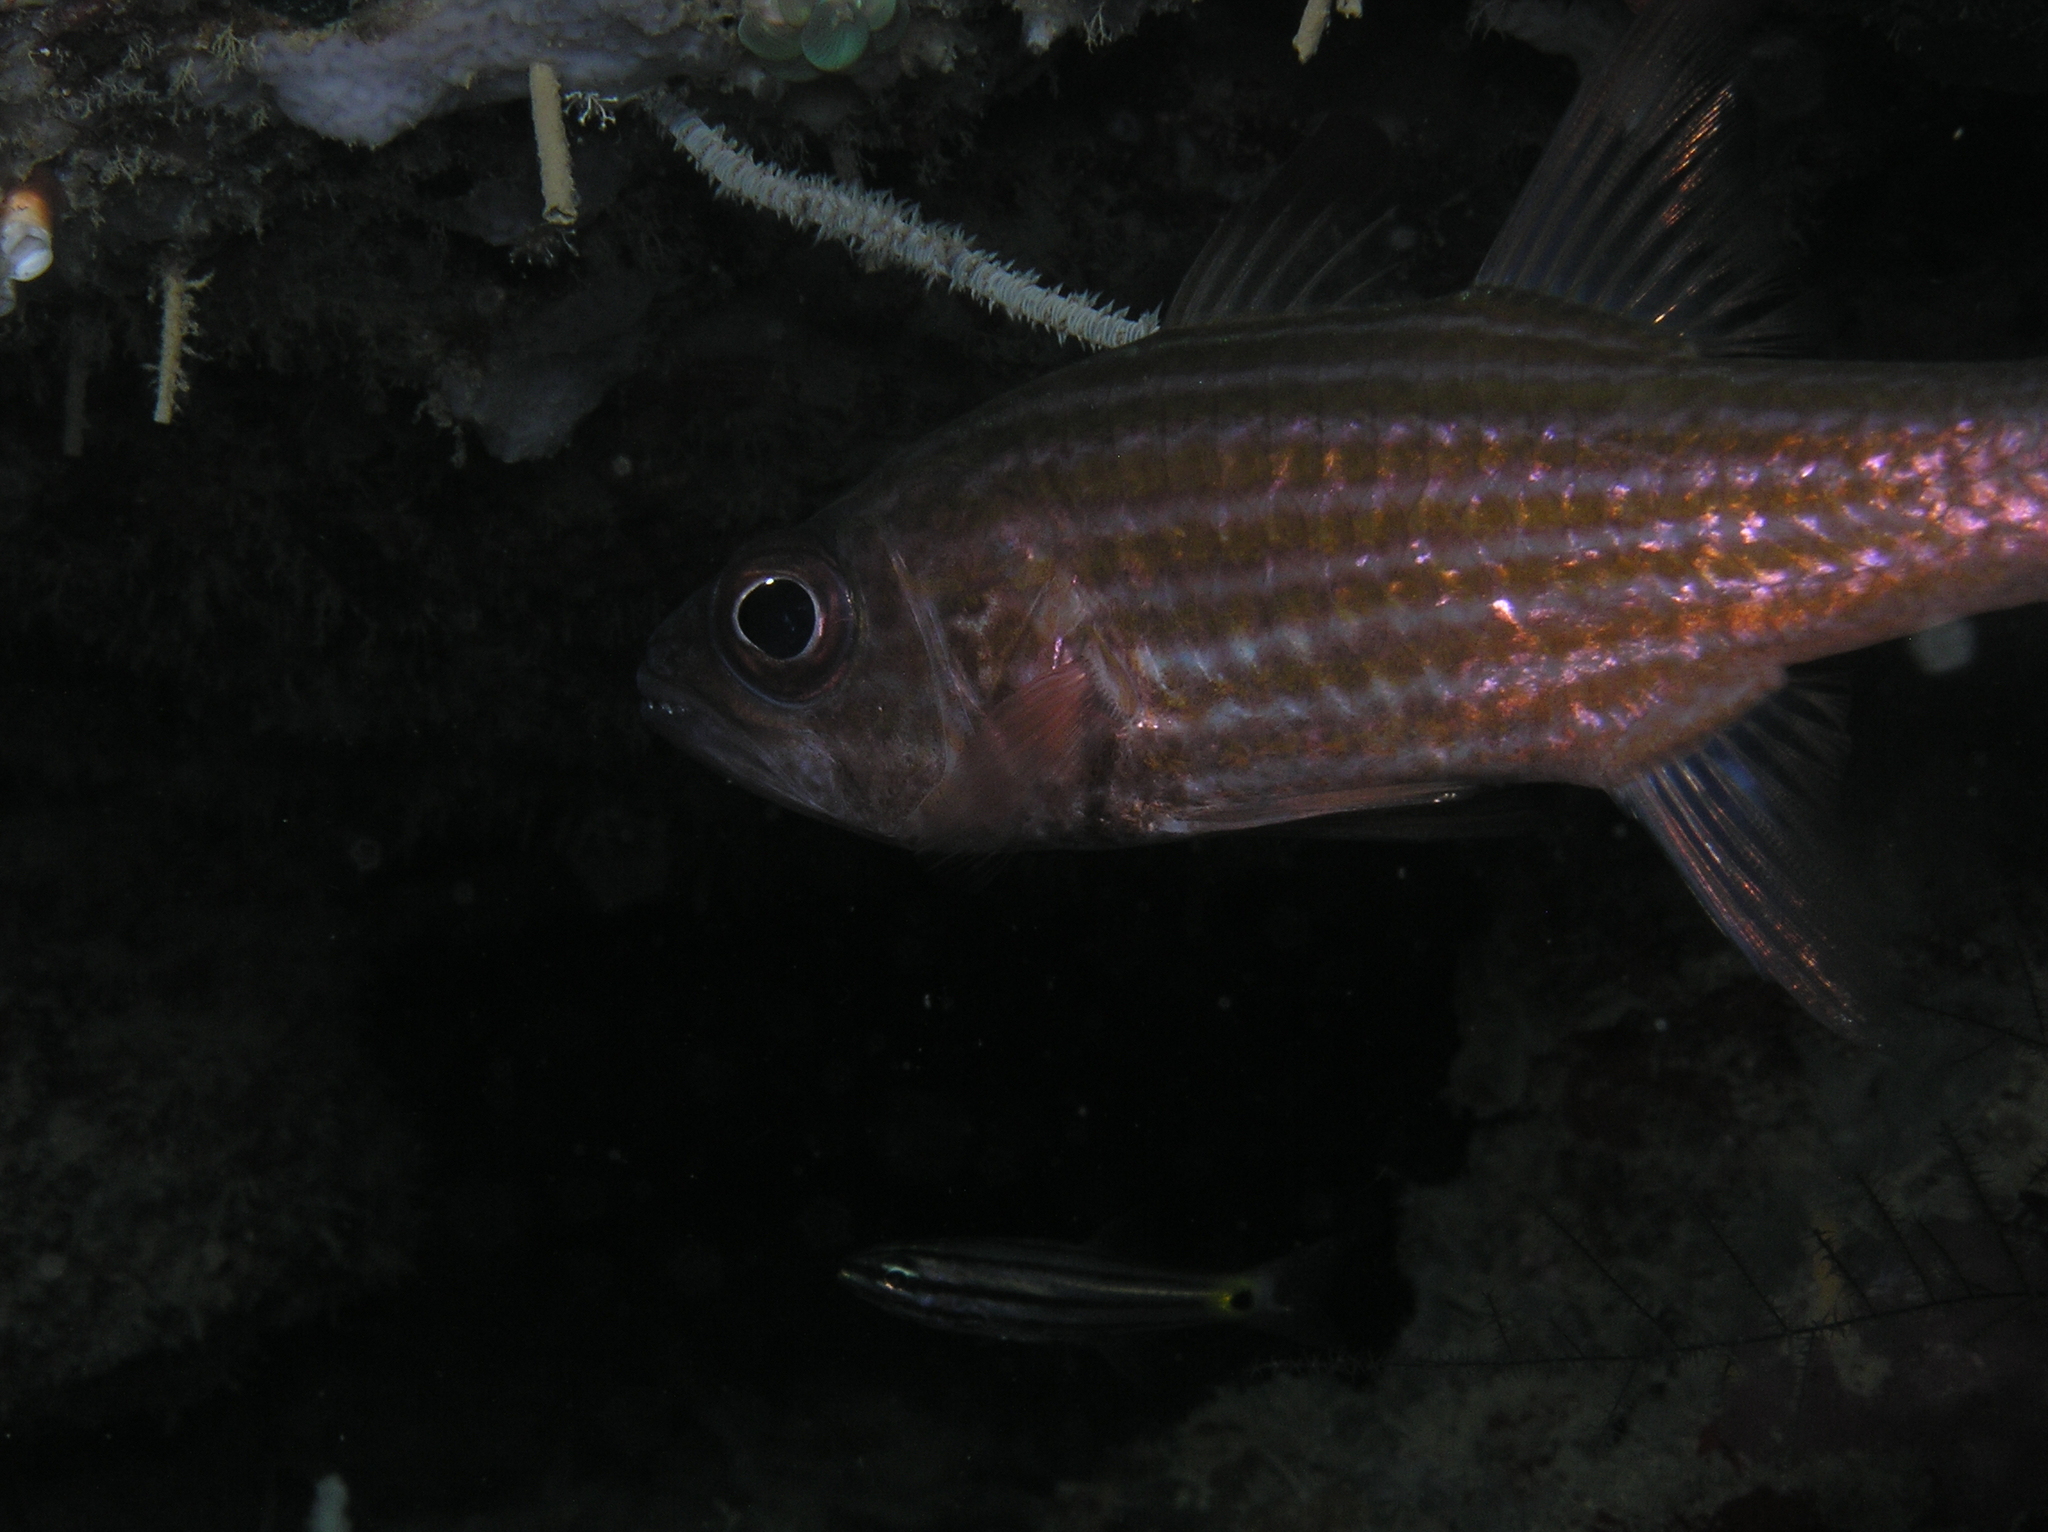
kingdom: Animalia
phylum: Chordata
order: Perciformes
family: Apogonidae
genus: Cheilodipterus
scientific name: Cheilodipterus
